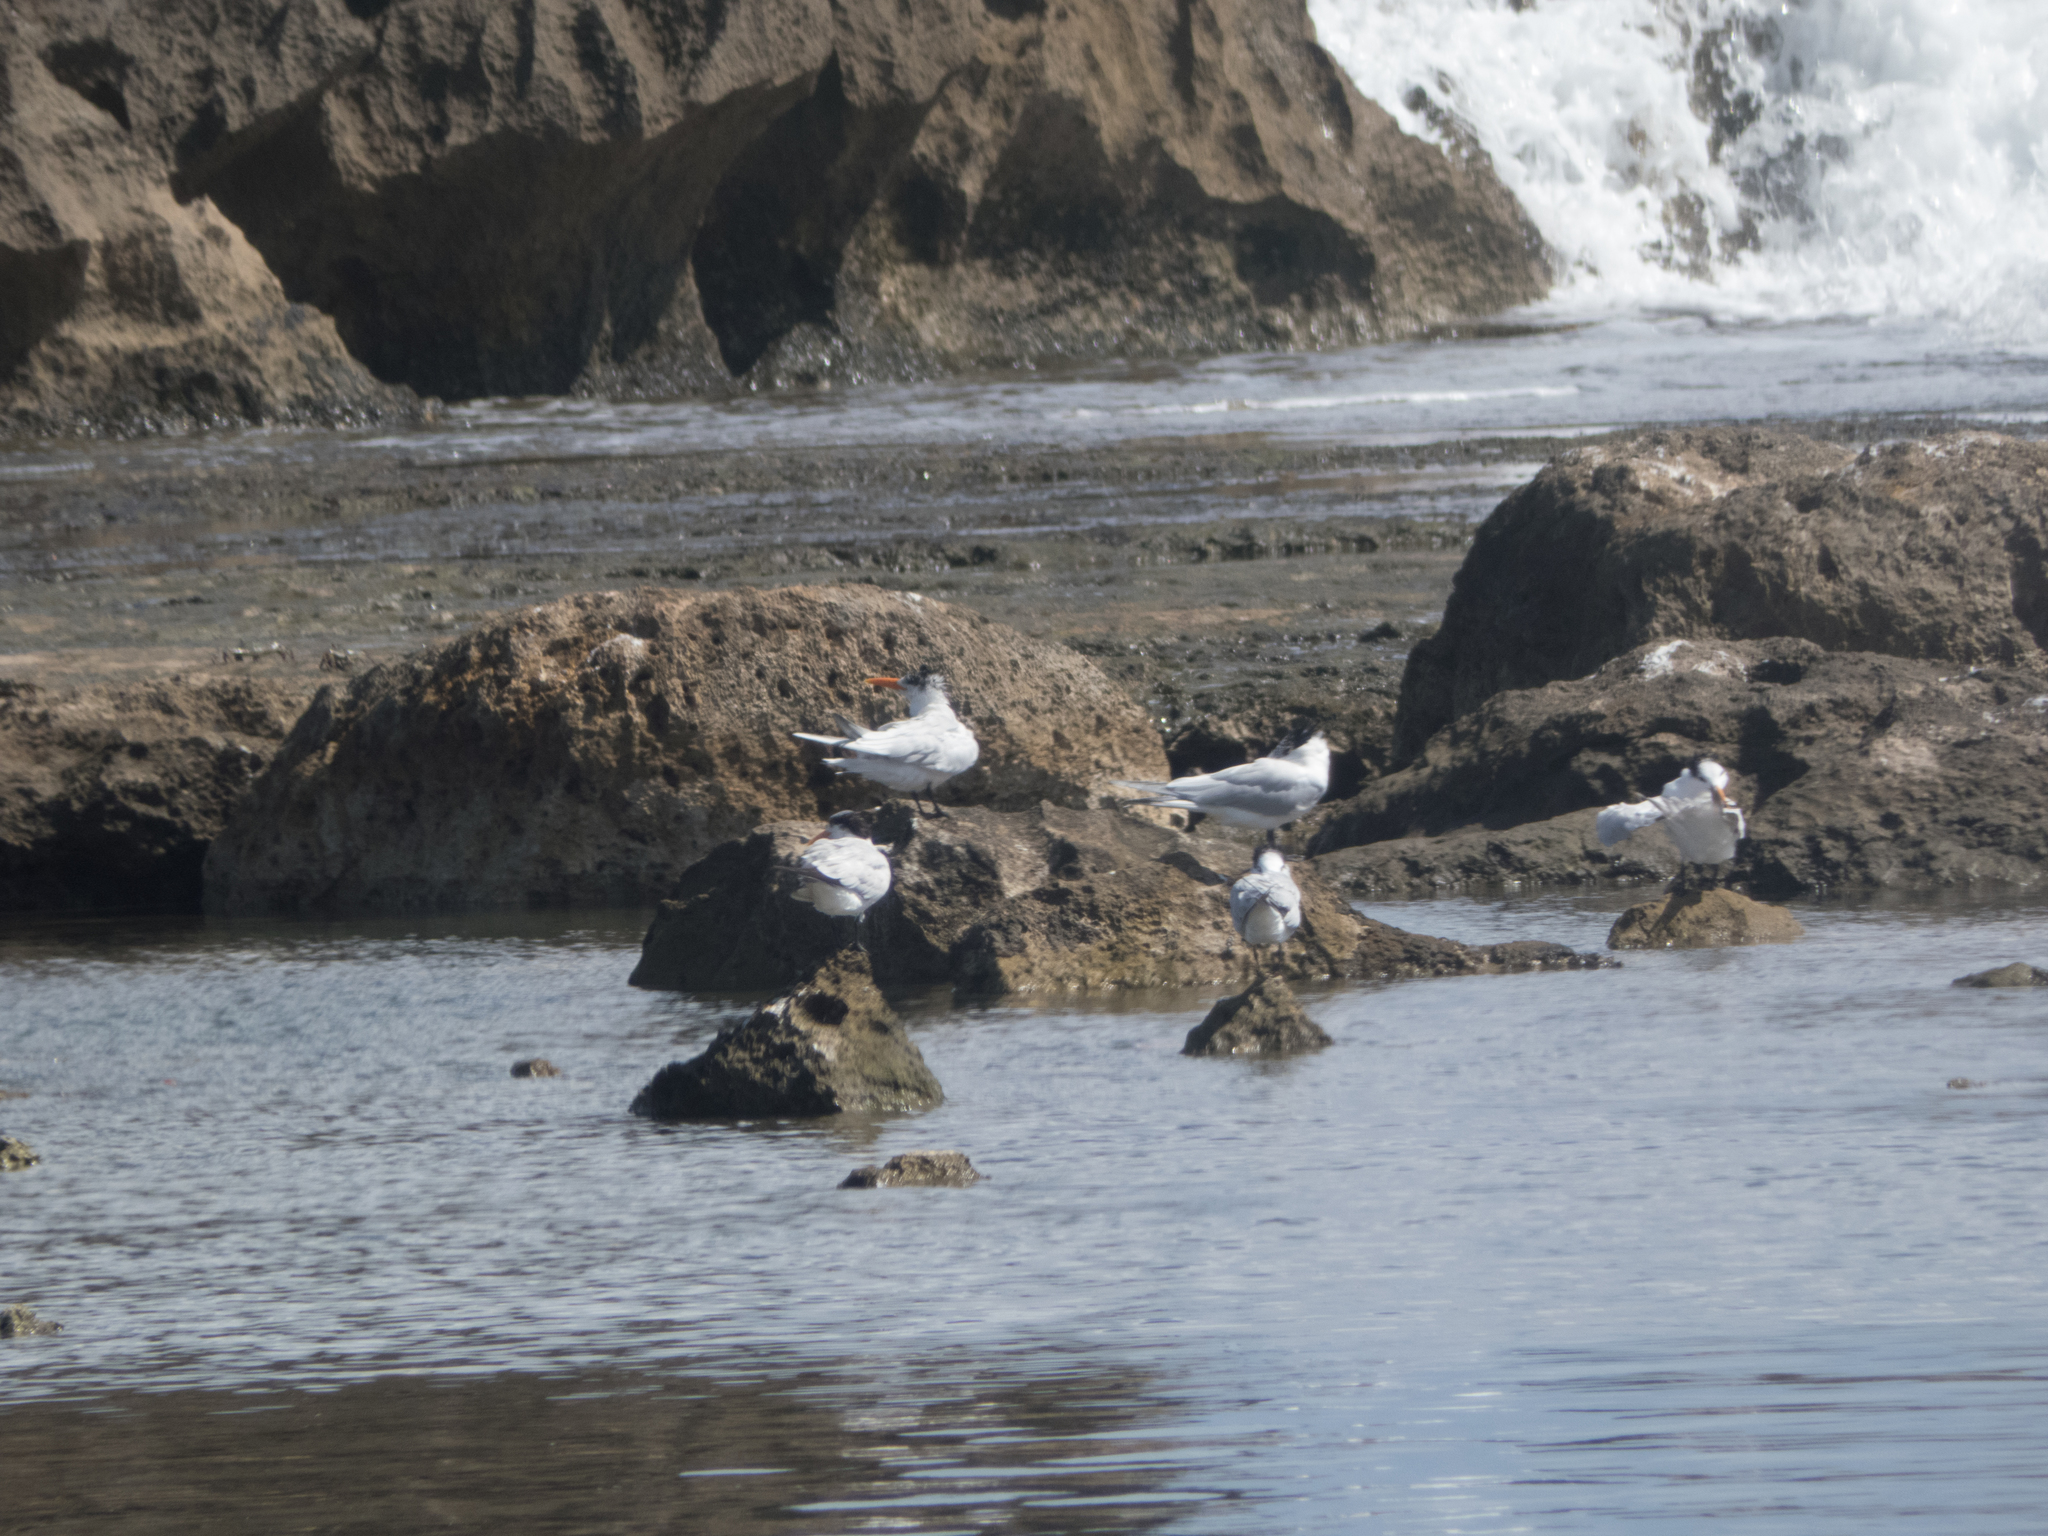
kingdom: Animalia
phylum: Chordata
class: Aves
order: Charadriiformes
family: Laridae
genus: Thalasseus
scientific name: Thalasseus maximus
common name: Royal tern
